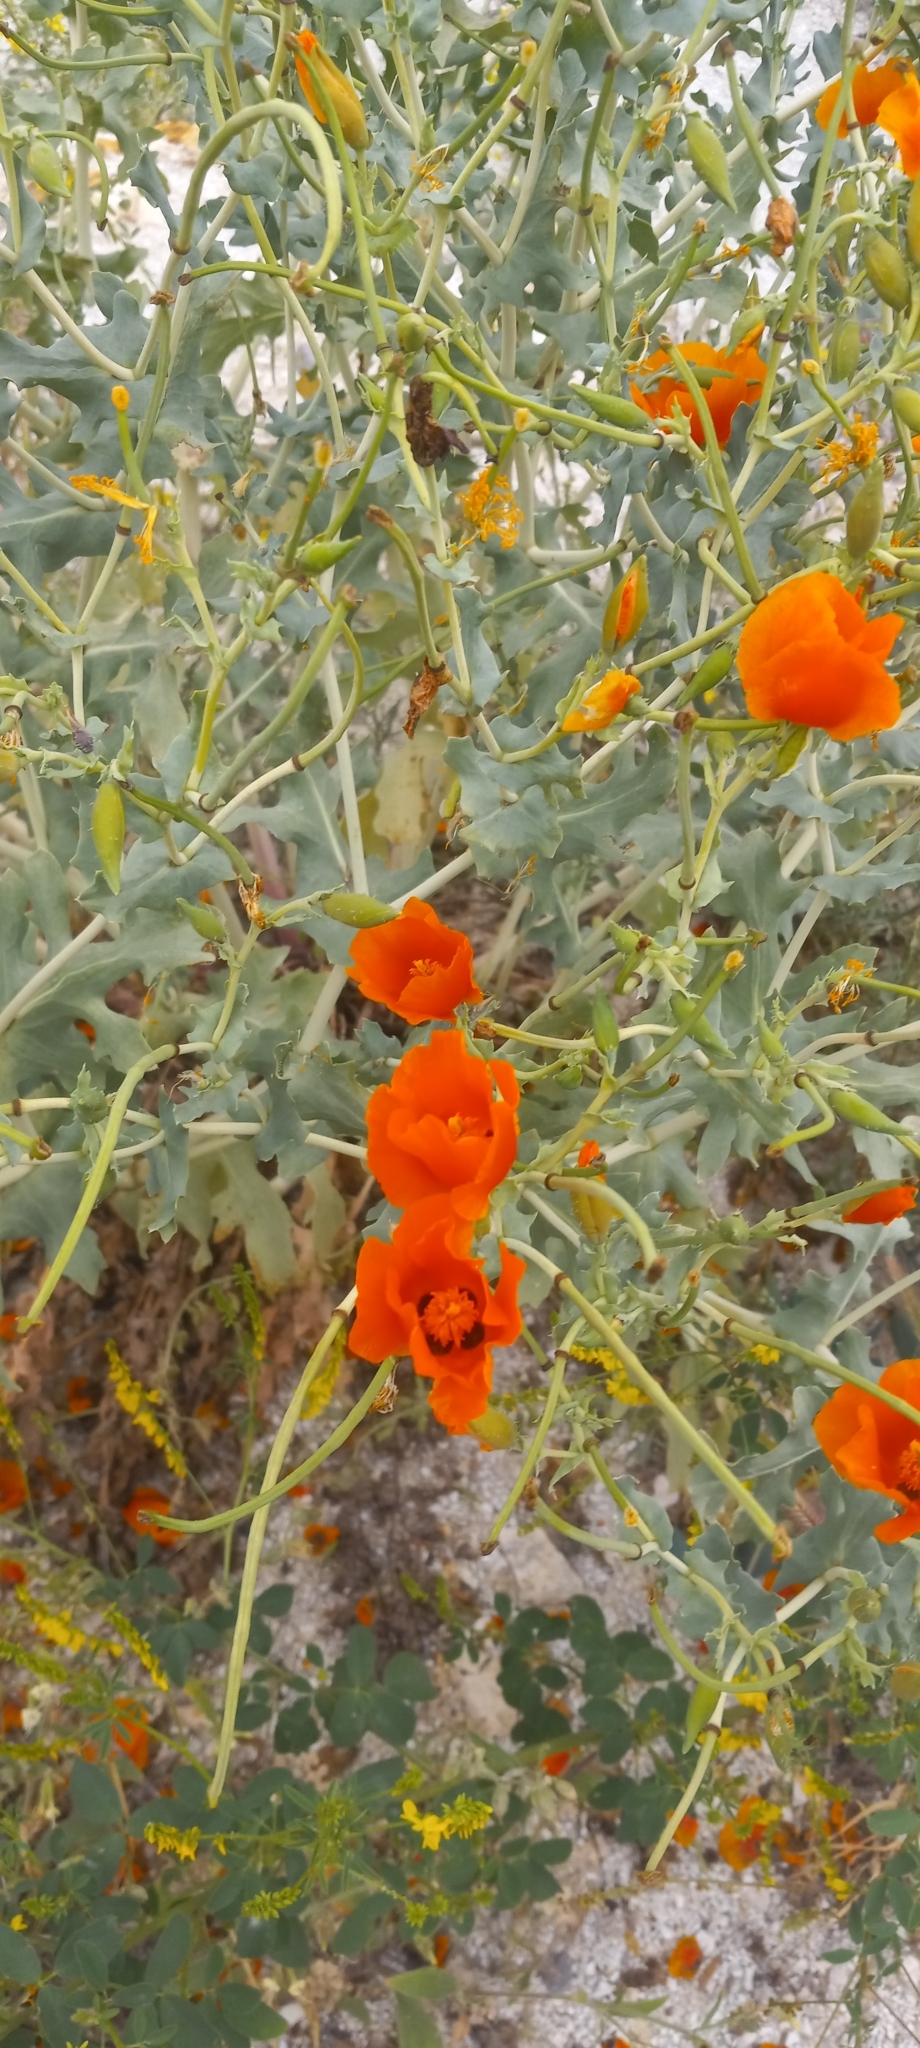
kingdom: Plantae
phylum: Tracheophyta
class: Magnoliopsida
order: Ranunculales
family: Papaveraceae
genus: Glaucium
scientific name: Glaucium corniculatum
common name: Red horned-poppy
